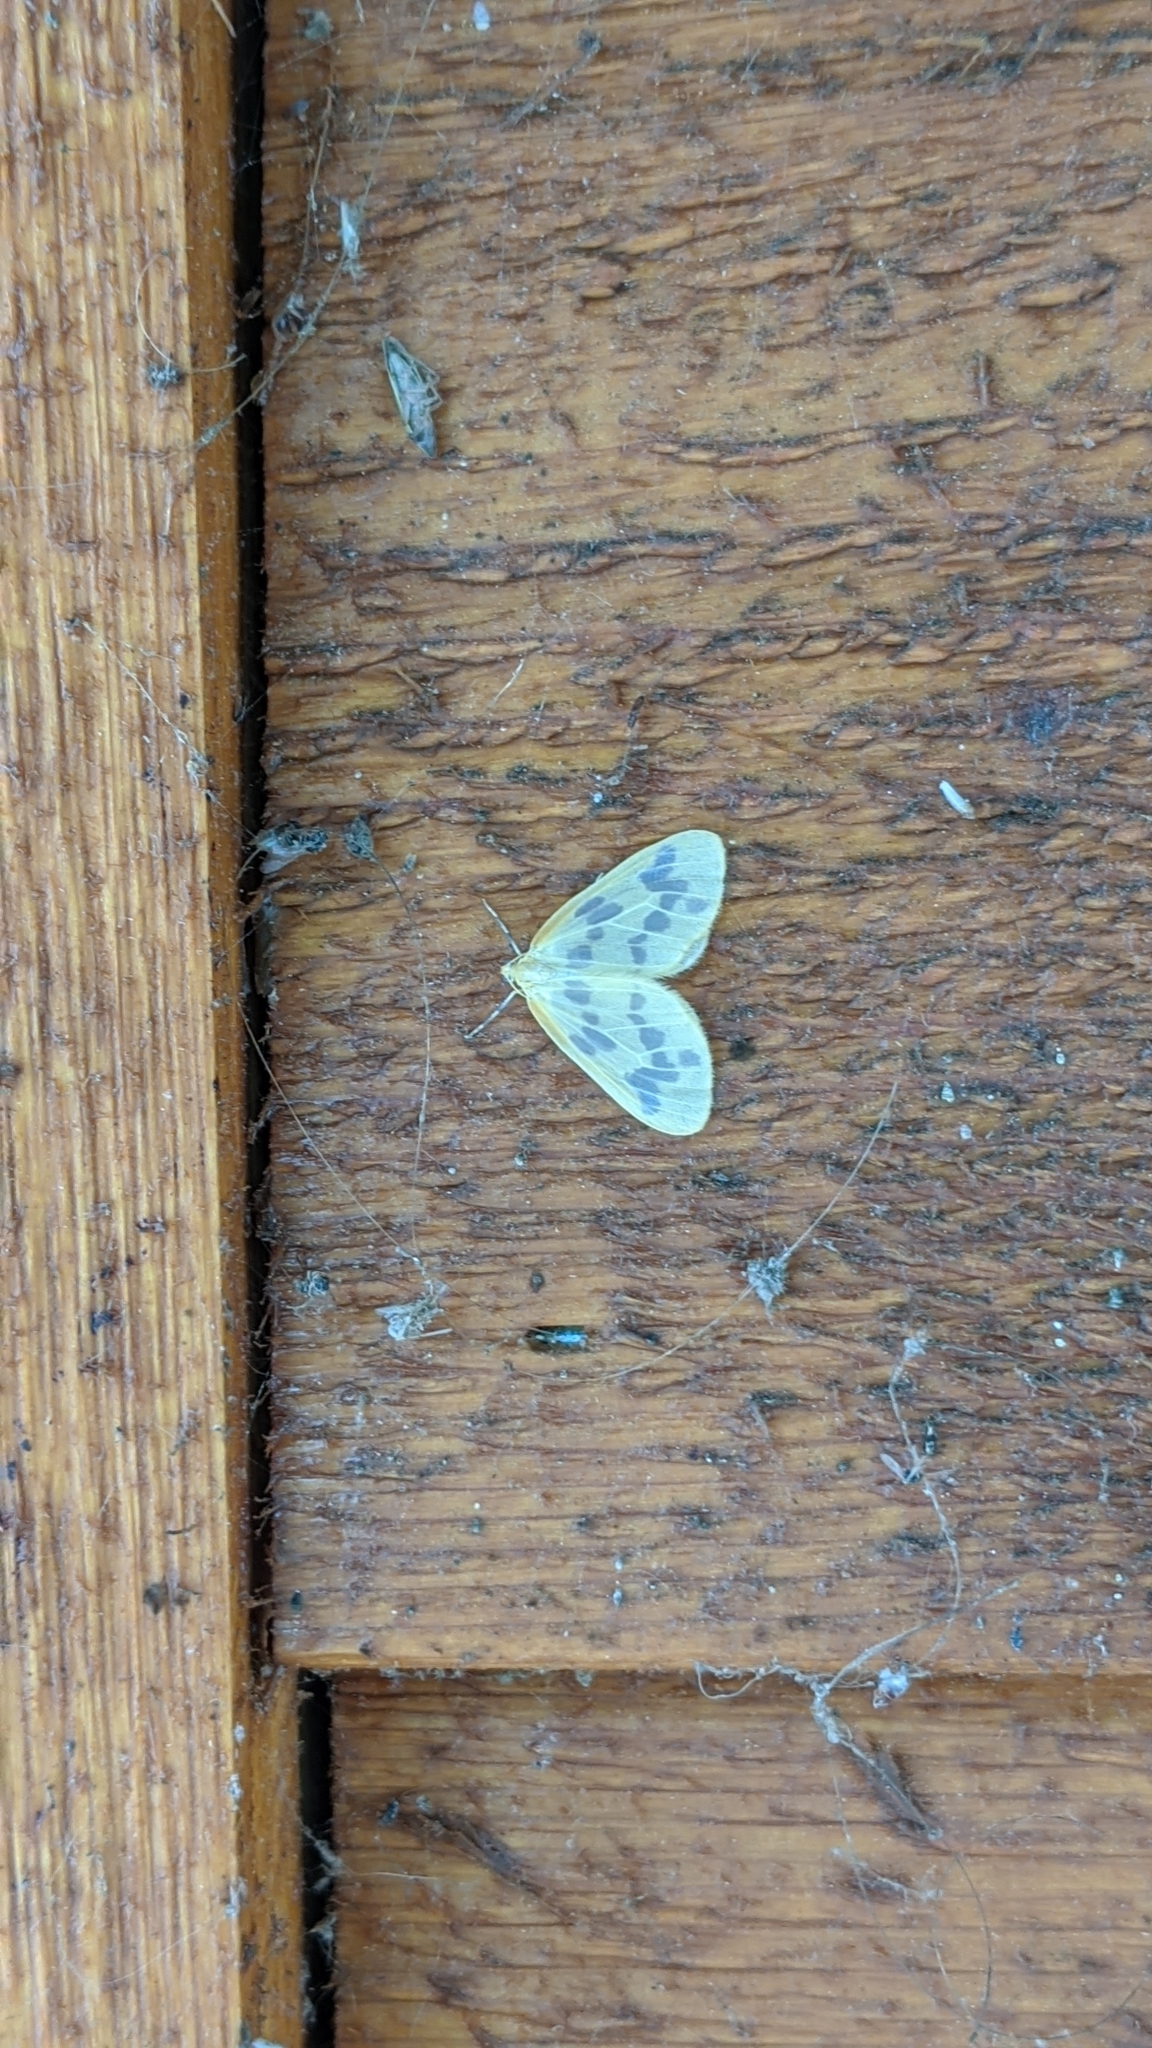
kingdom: Animalia
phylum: Arthropoda
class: Insecta
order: Lepidoptera
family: Geometridae
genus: Eubaphe
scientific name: Eubaphe mendica
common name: Beggar
